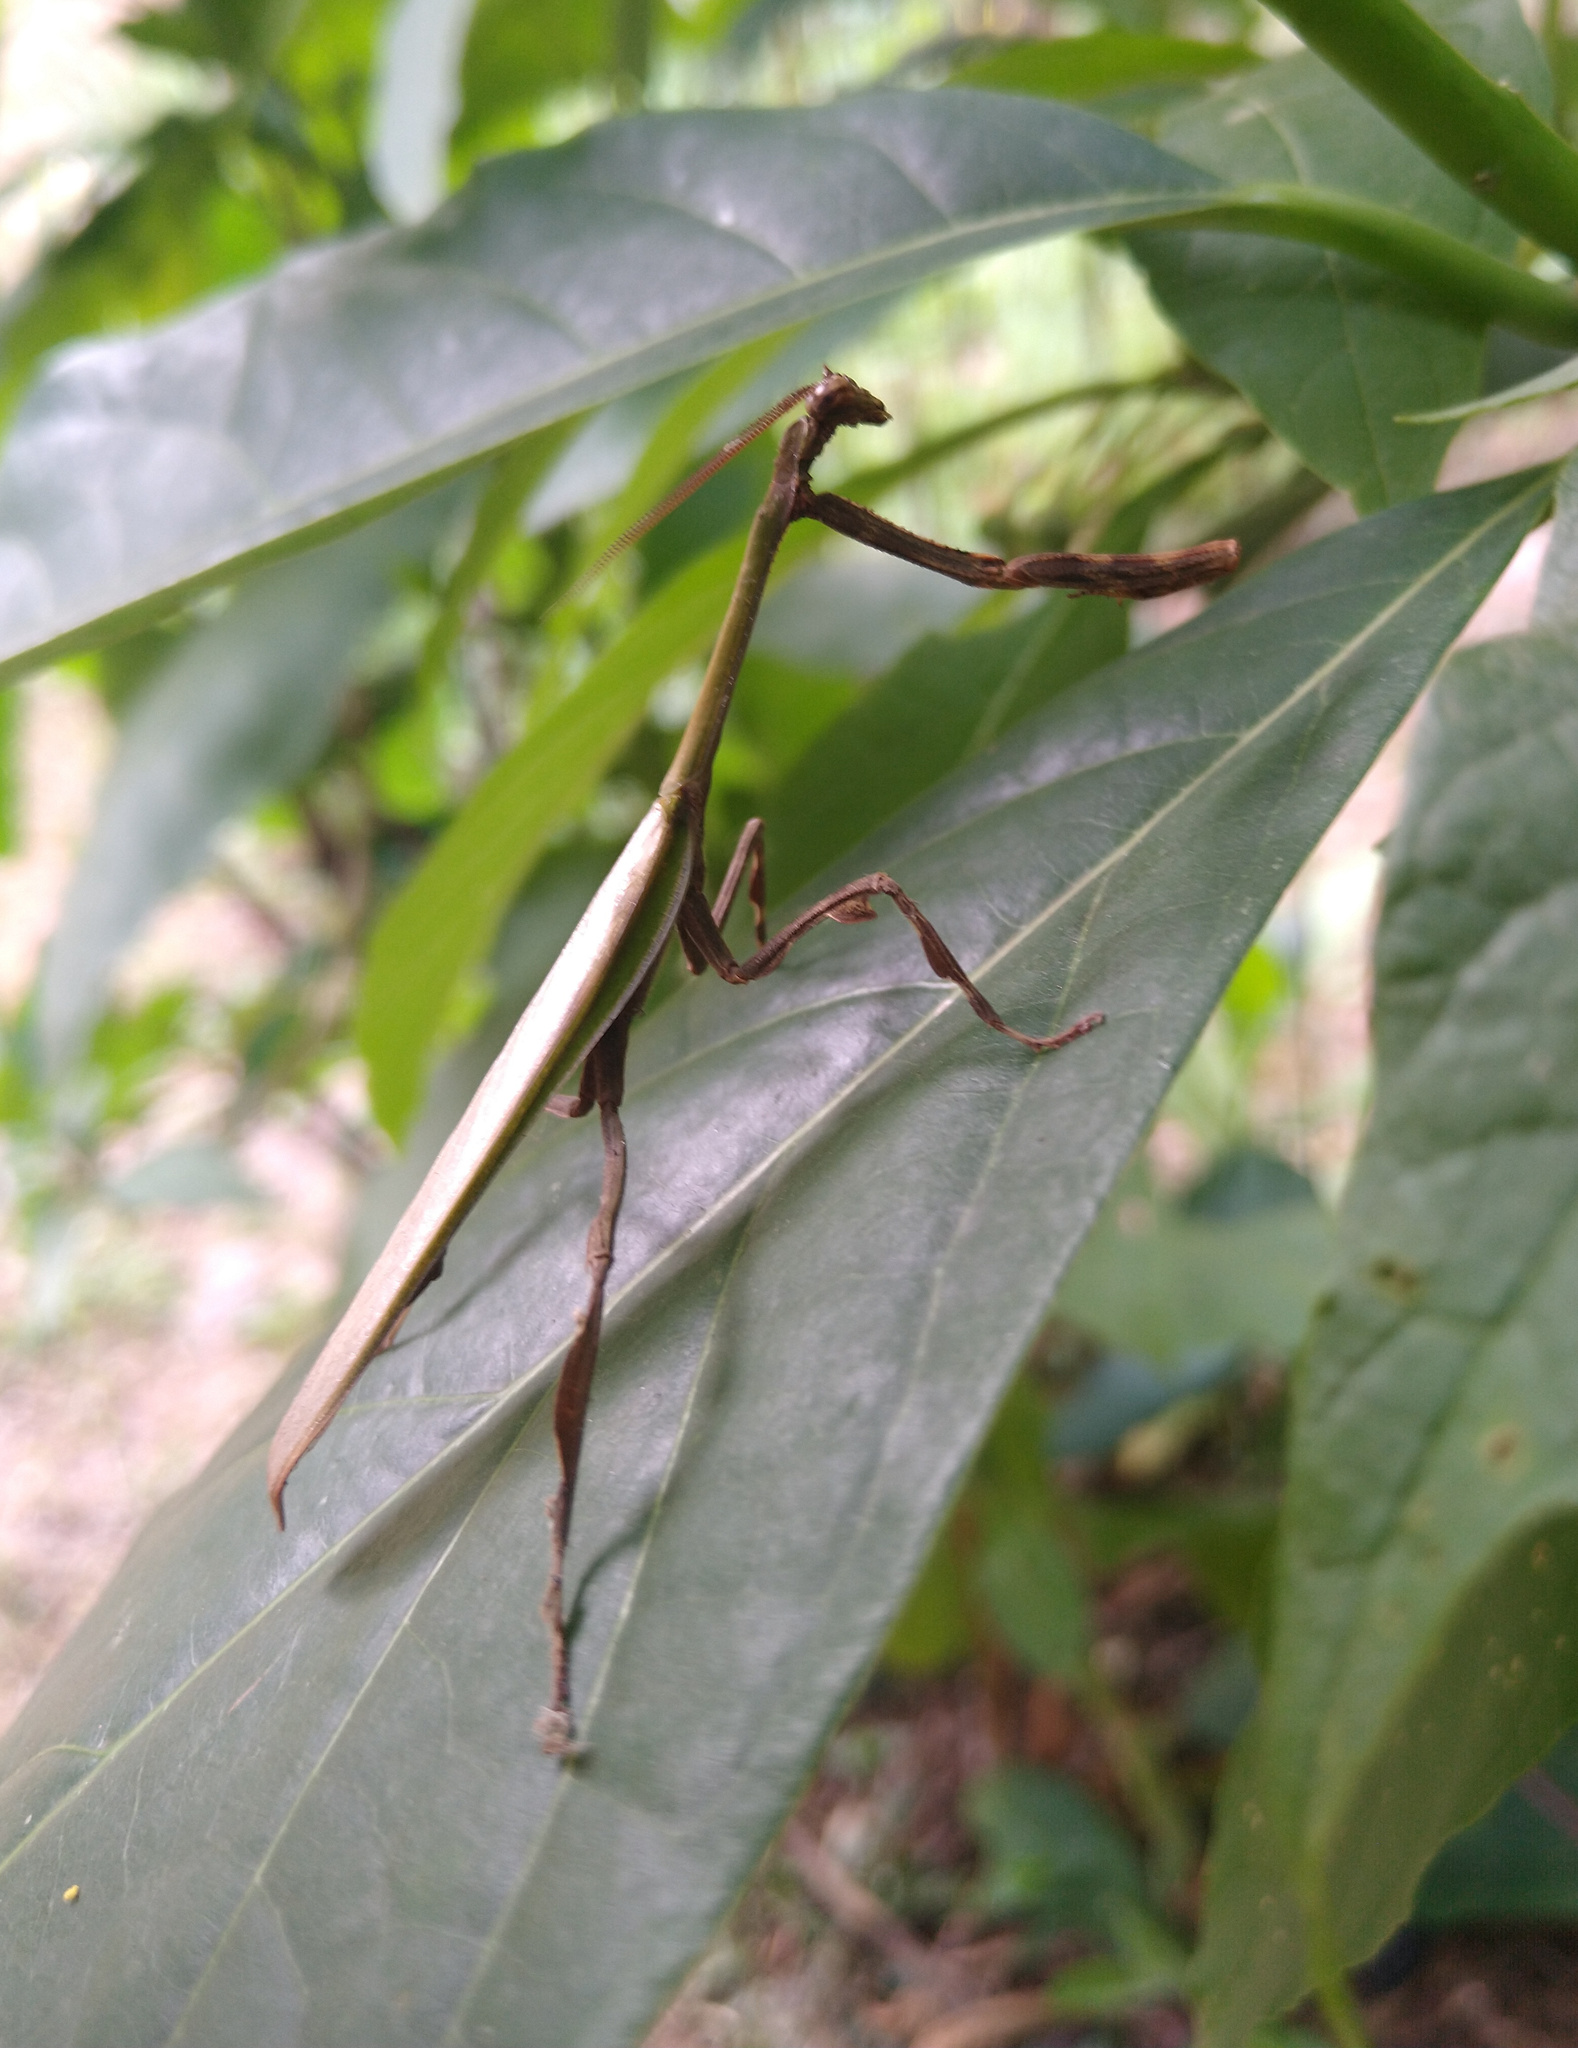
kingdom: Animalia
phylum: Arthropoda
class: Insecta
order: Mantodea
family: Mantidae
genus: Vates
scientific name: Vates phoenix
